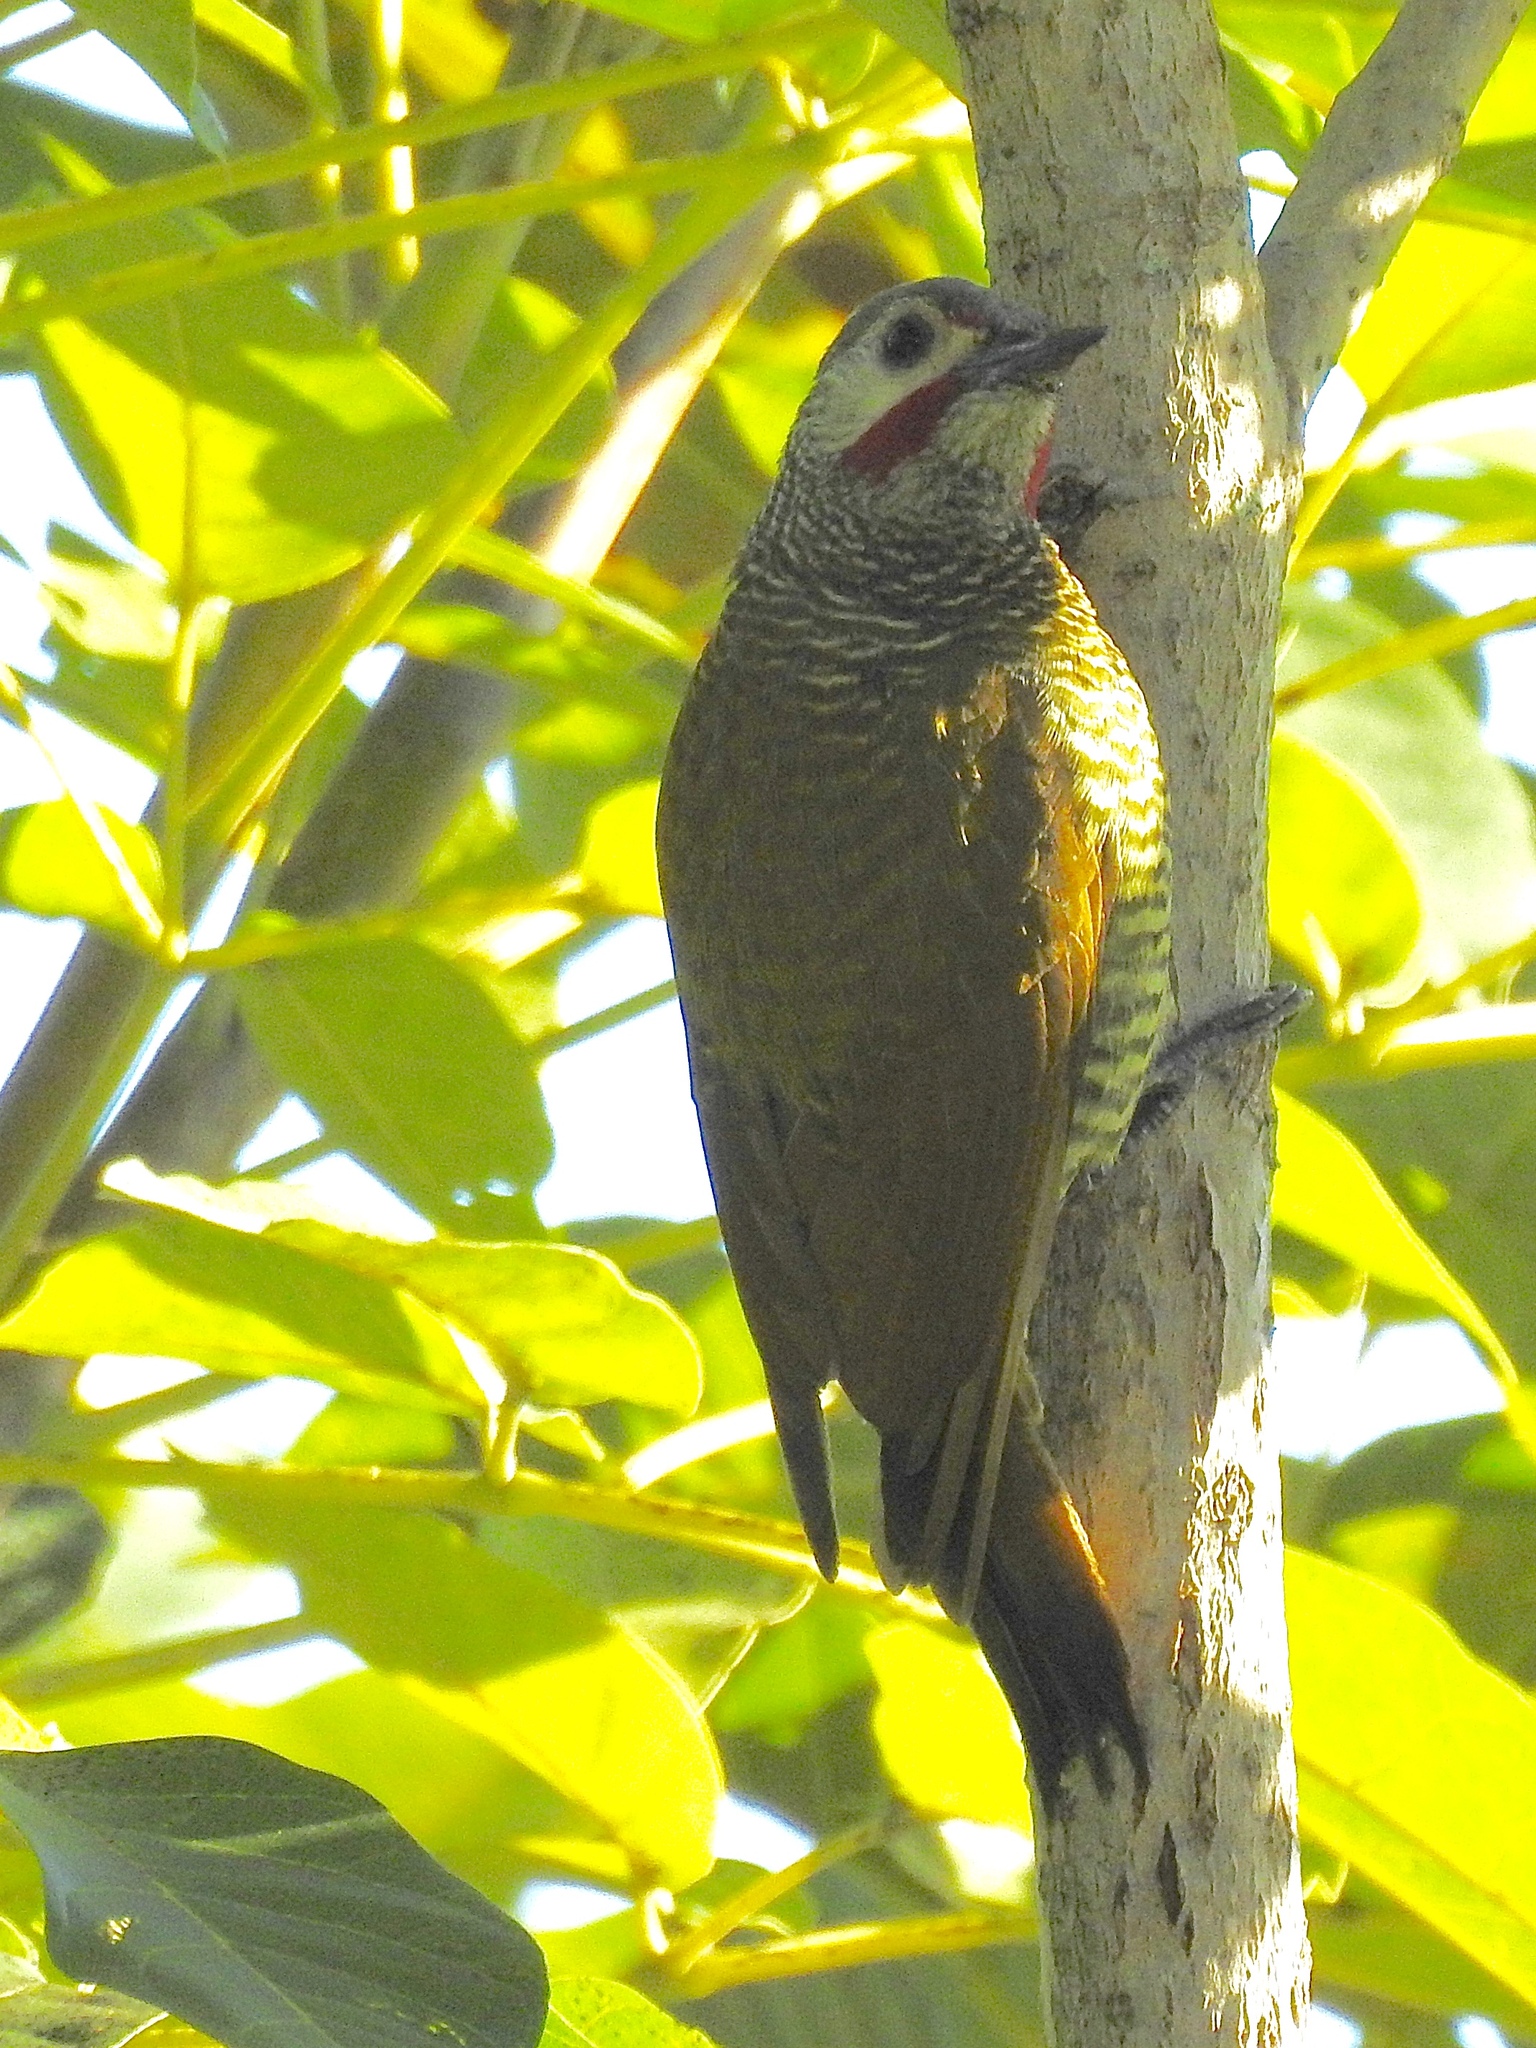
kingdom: Animalia
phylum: Chordata
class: Aves
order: Piciformes
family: Picidae
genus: Colaptes
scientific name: Colaptes auricularis
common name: Grey-crowned woodpecker
